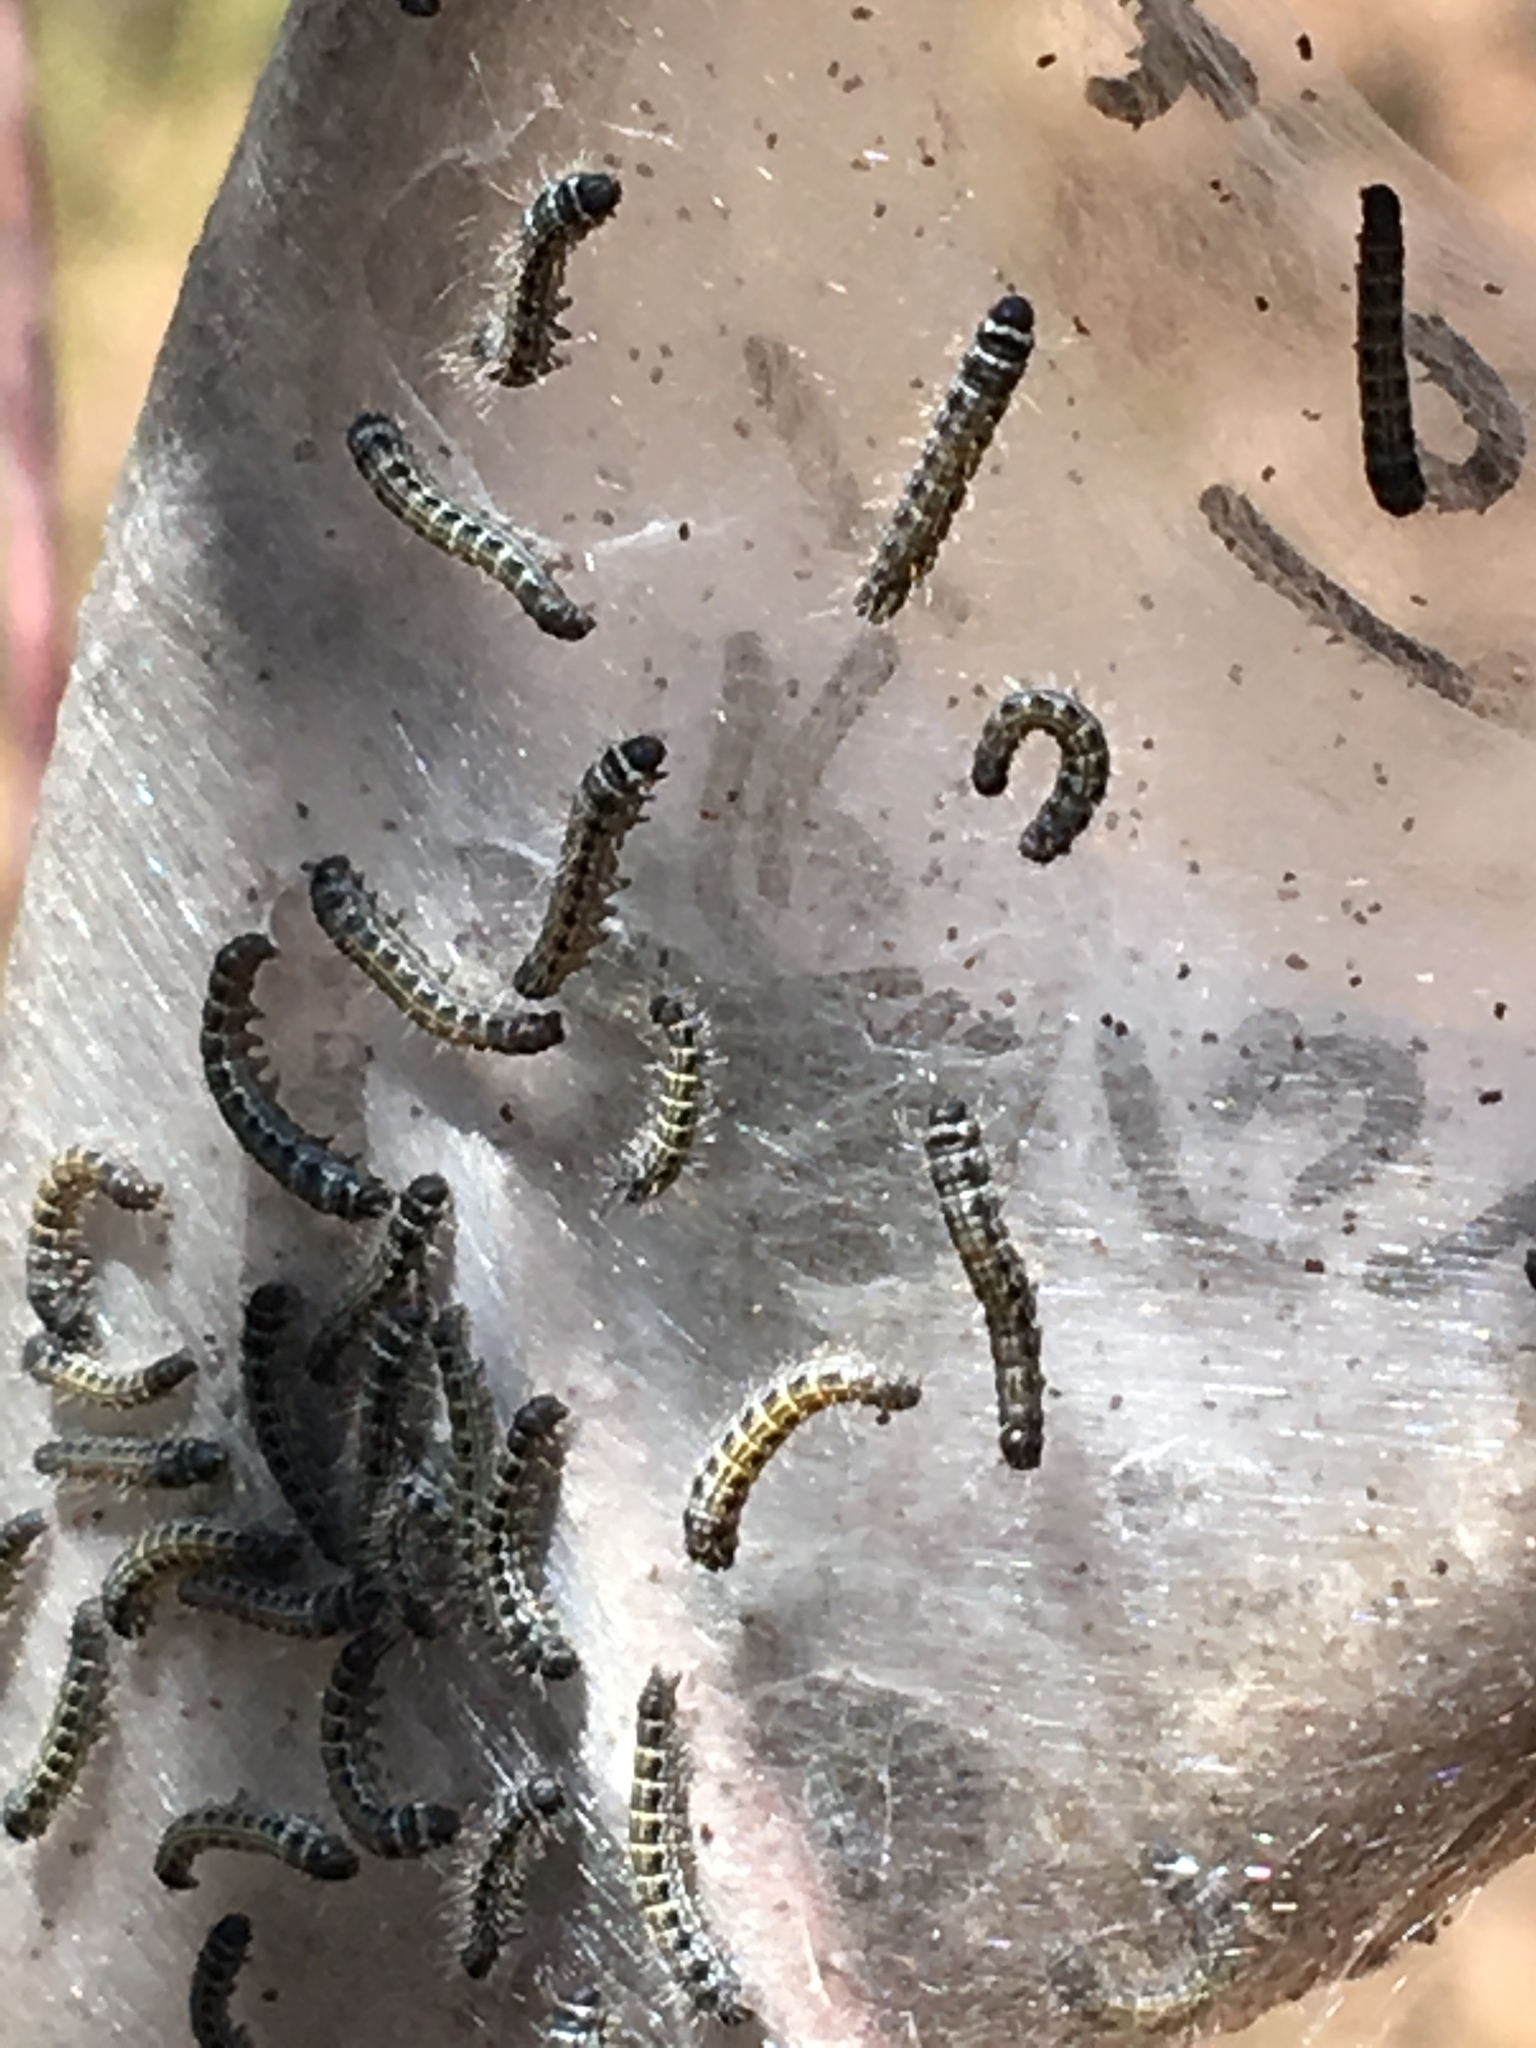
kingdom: Animalia
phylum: Arthropoda
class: Insecta
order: Lepidoptera
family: Lasiocampidae
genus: Malacosoma
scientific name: Malacosoma americana
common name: Eastern tent caterpillar moth
